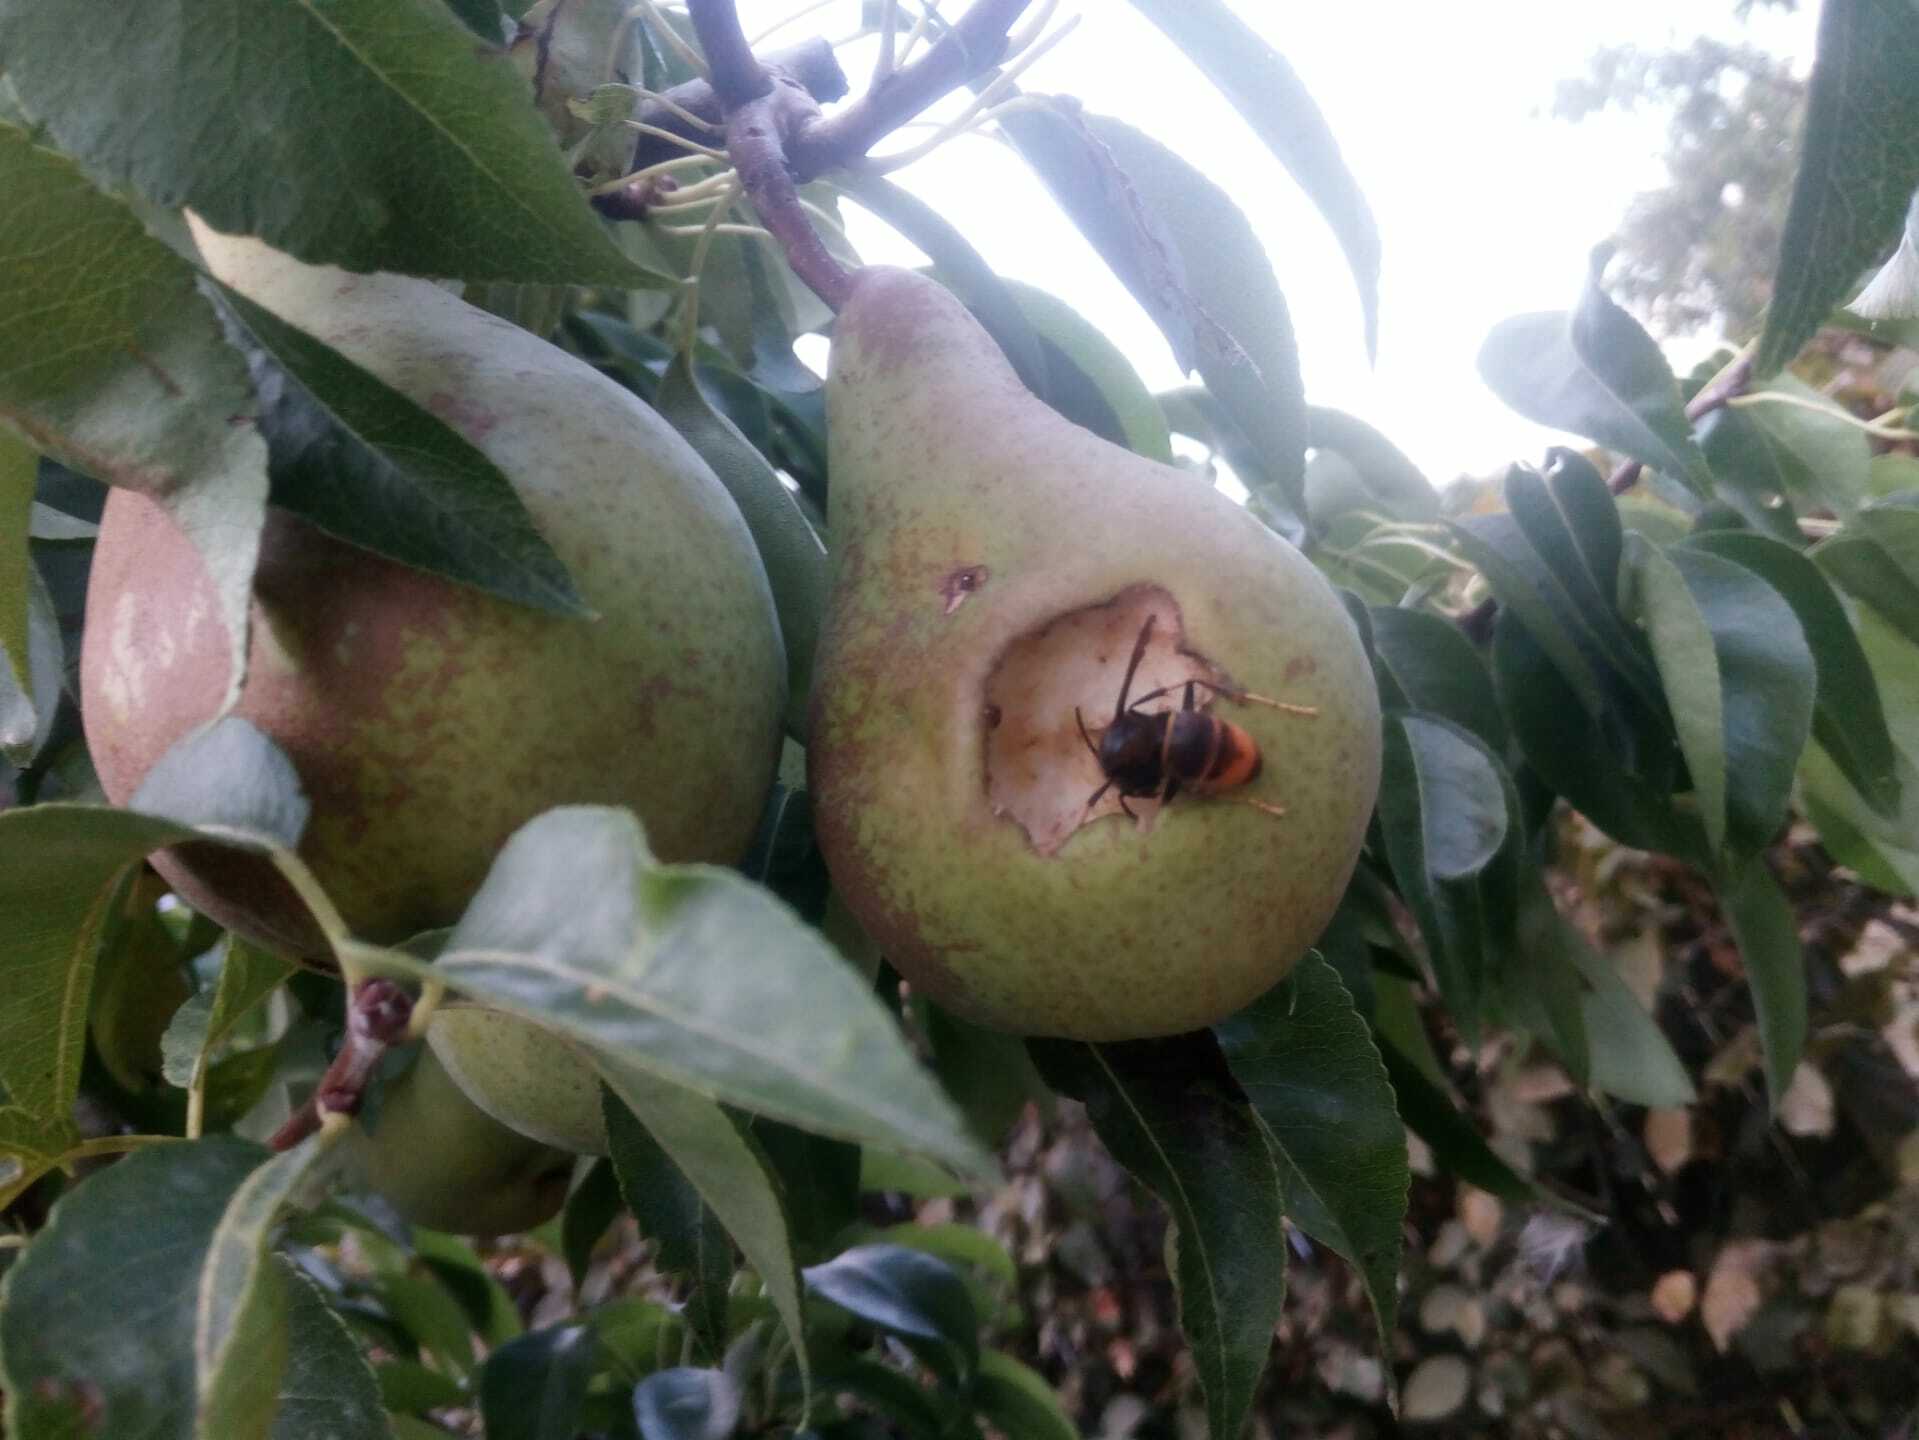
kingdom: Animalia
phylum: Arthropoda
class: Insecta
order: Hymenoptera
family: Vespidae
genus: Vespa
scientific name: Vespa velutina
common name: Asian hornet
